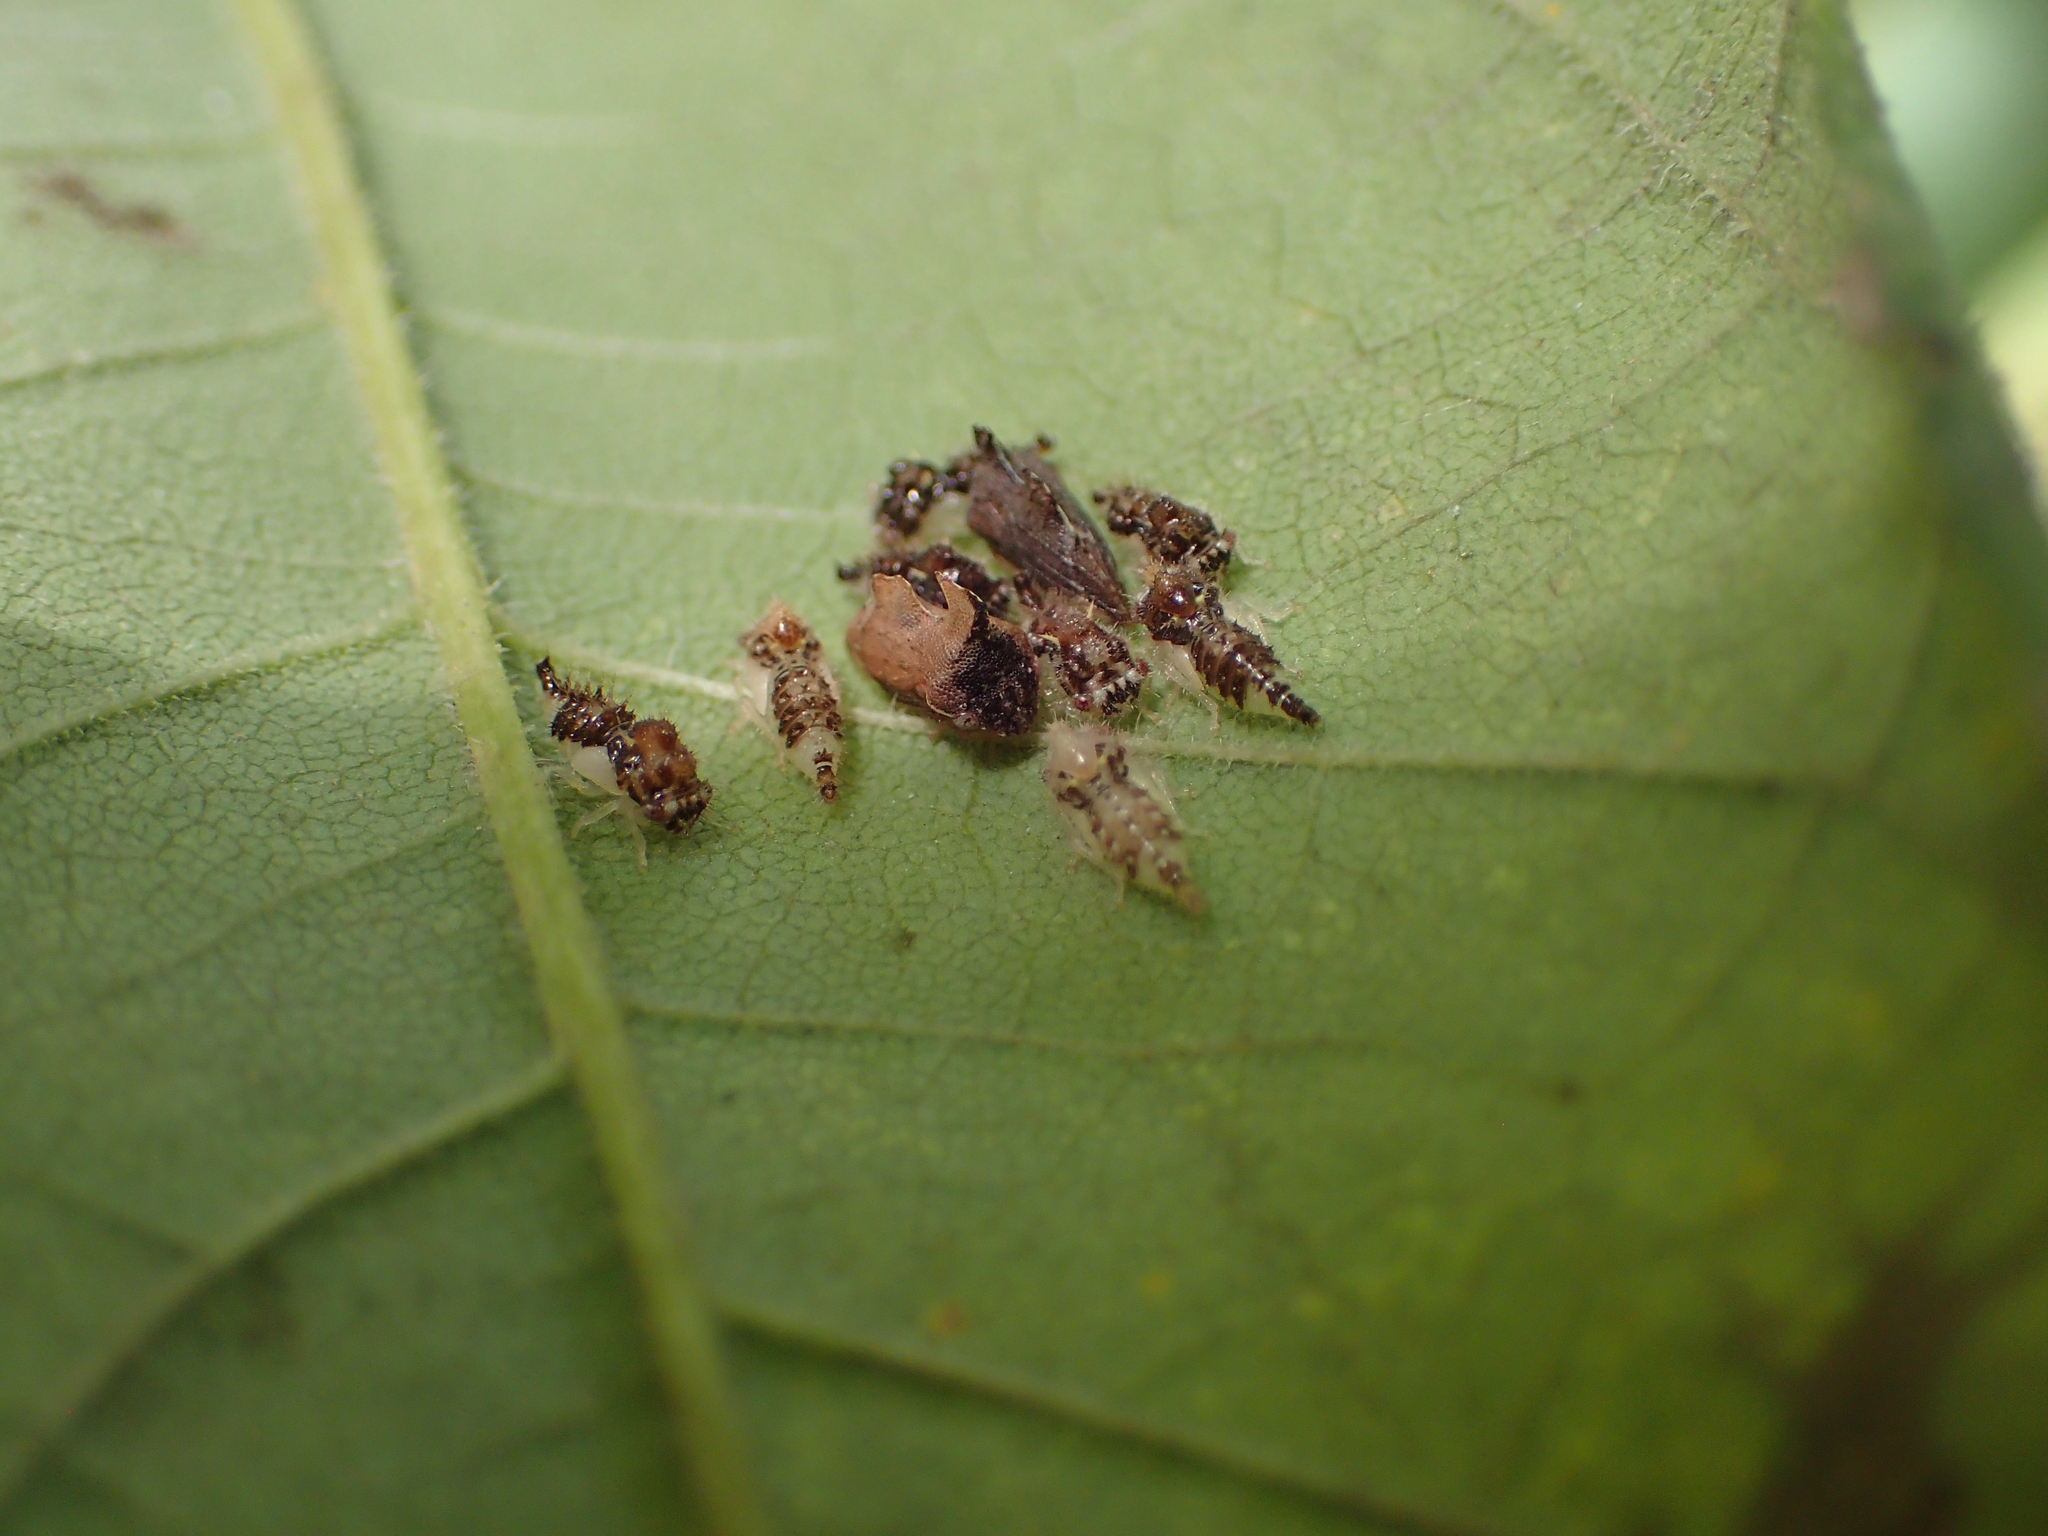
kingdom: Animalia
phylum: Arthropoda
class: Insecta
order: Hemiptera
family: Membracidae
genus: Entylia
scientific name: Entylia carinata
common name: Keeled treehopper
